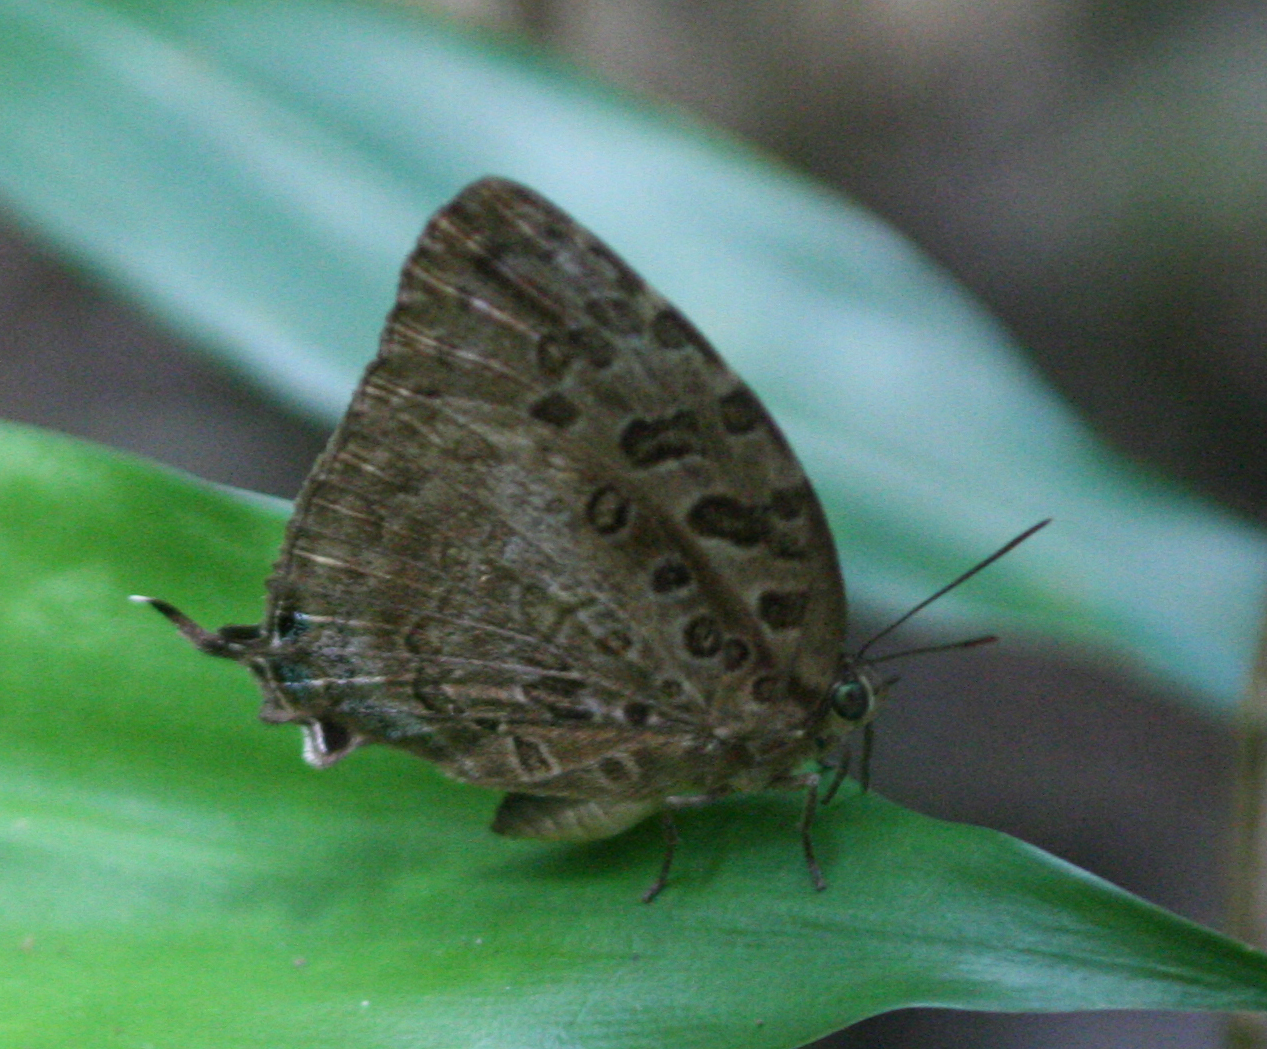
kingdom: Animalia
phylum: Arthropoda
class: Insecta
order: Lepidoptera
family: Lycaenidae
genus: Arhopala
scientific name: Arhopala anthelus
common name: Bushblue
